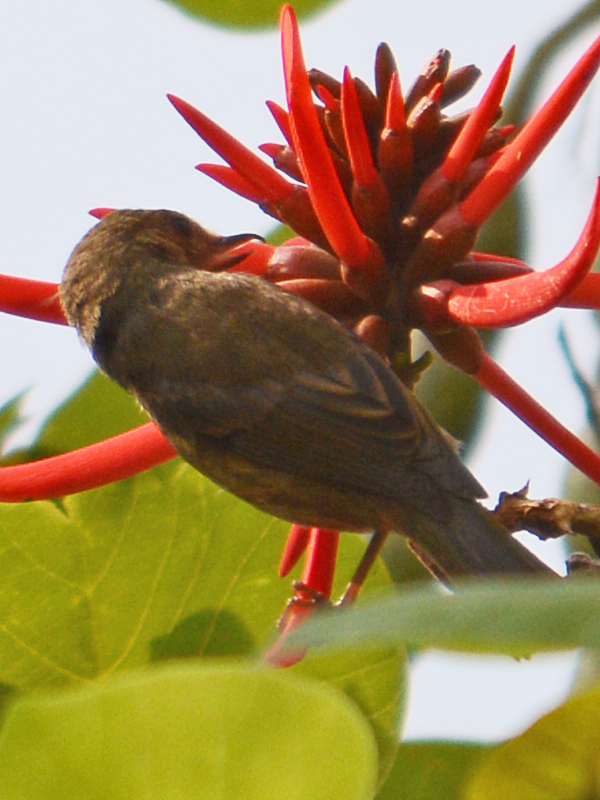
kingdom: Animalia
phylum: Chordata
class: Aves
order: Passeriformes
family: Thraupidae
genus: Diglossa
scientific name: Diglossa baritula
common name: Cinnamon-bellied flowerpiercer
